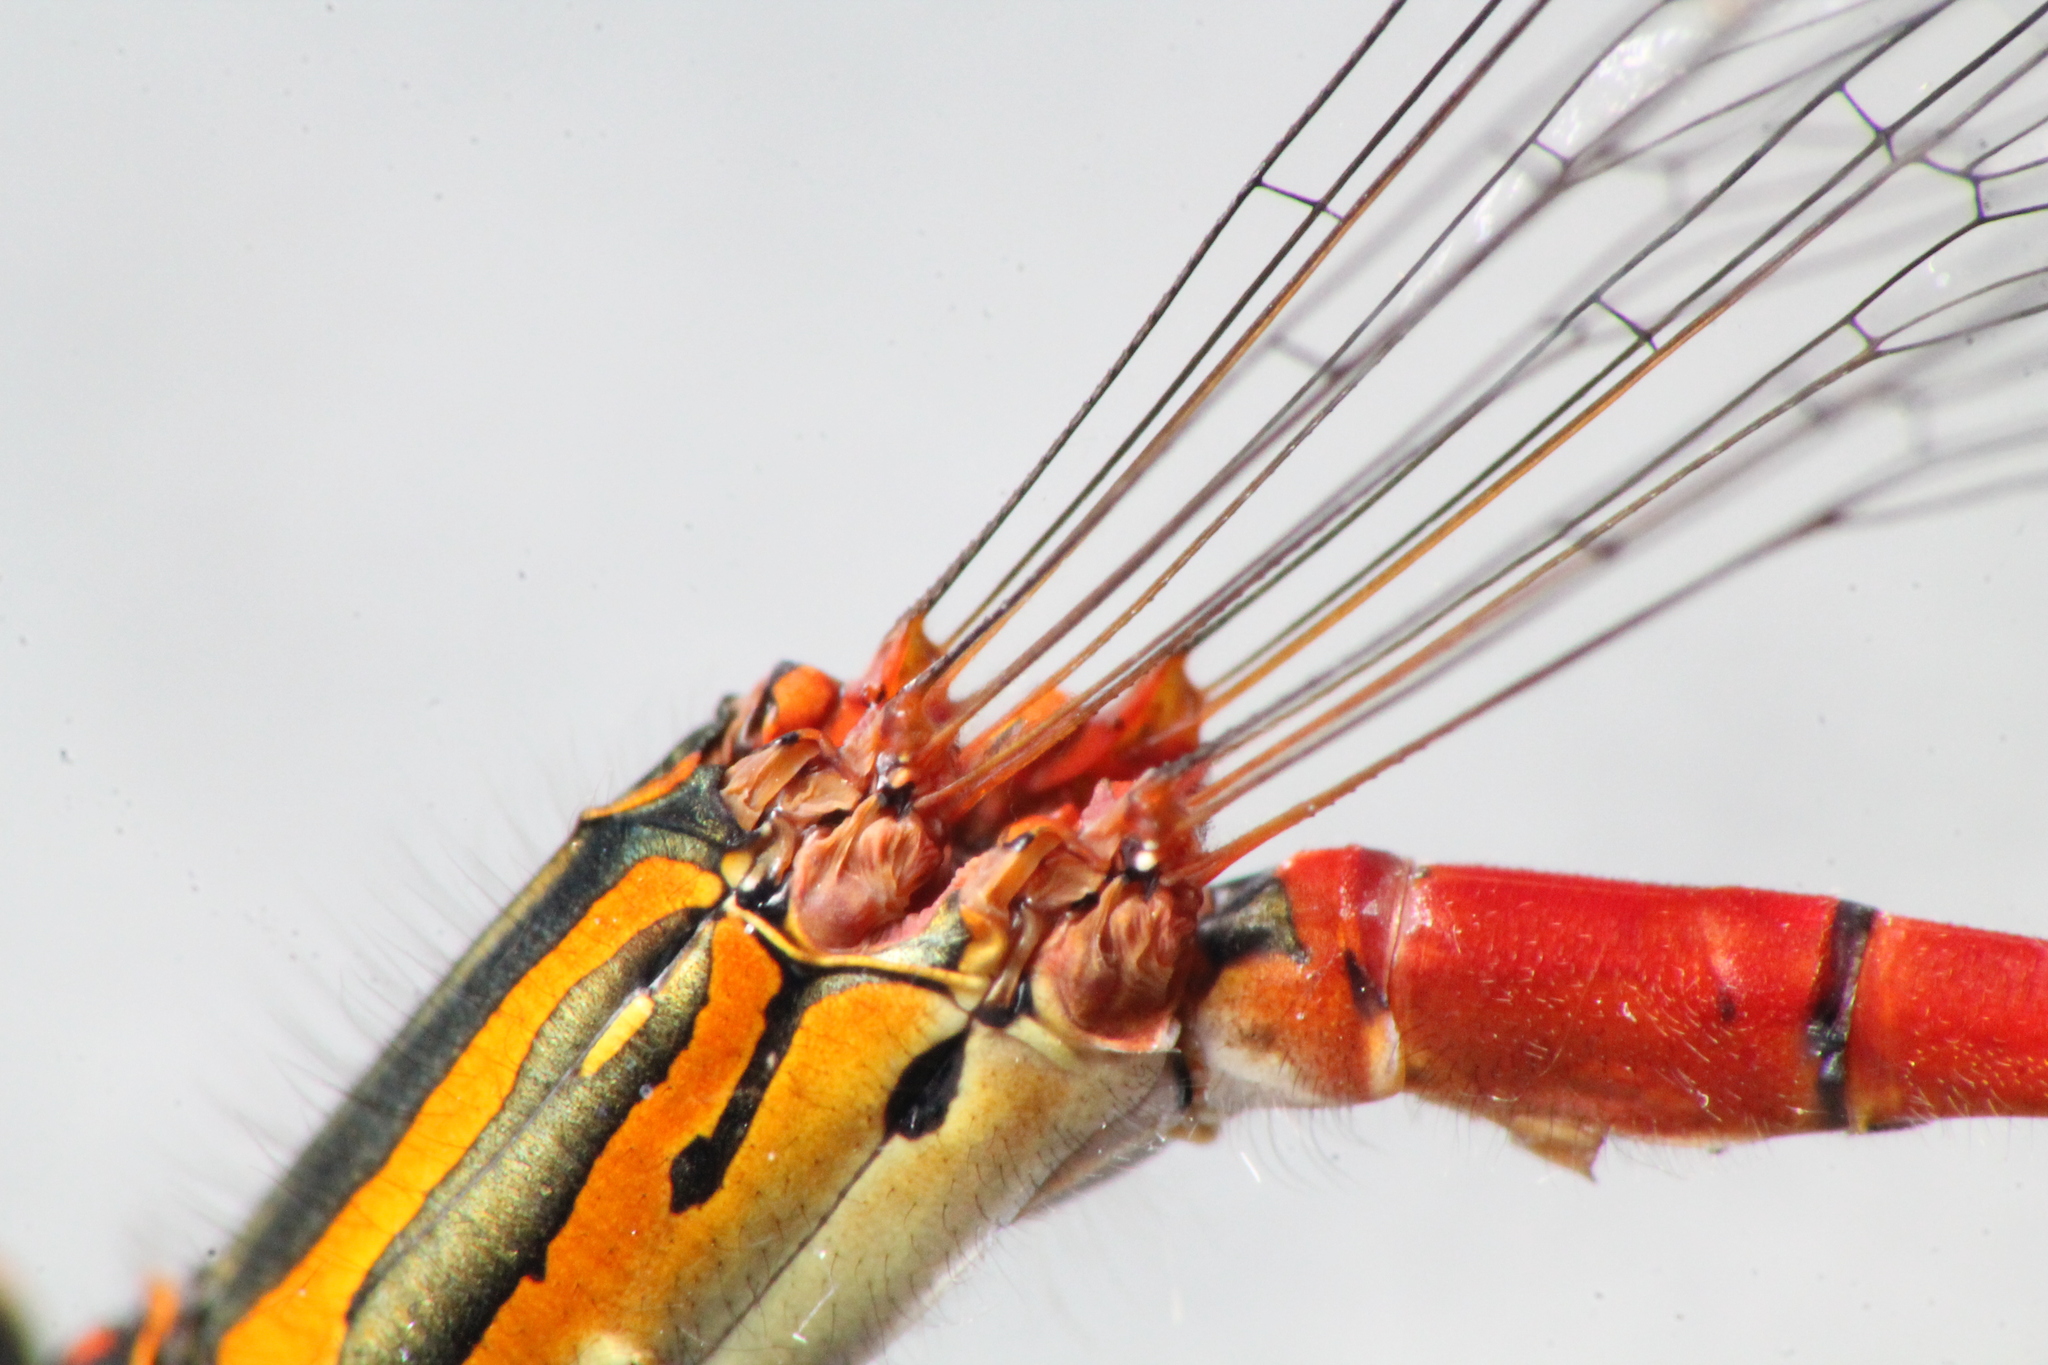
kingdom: Animalia
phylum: Arthropoda
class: Insecta
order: Odonata
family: Coenagrionidae
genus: Xanthocnemis
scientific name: Xanthocnemis zealandica
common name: Common redcoat damselfly
